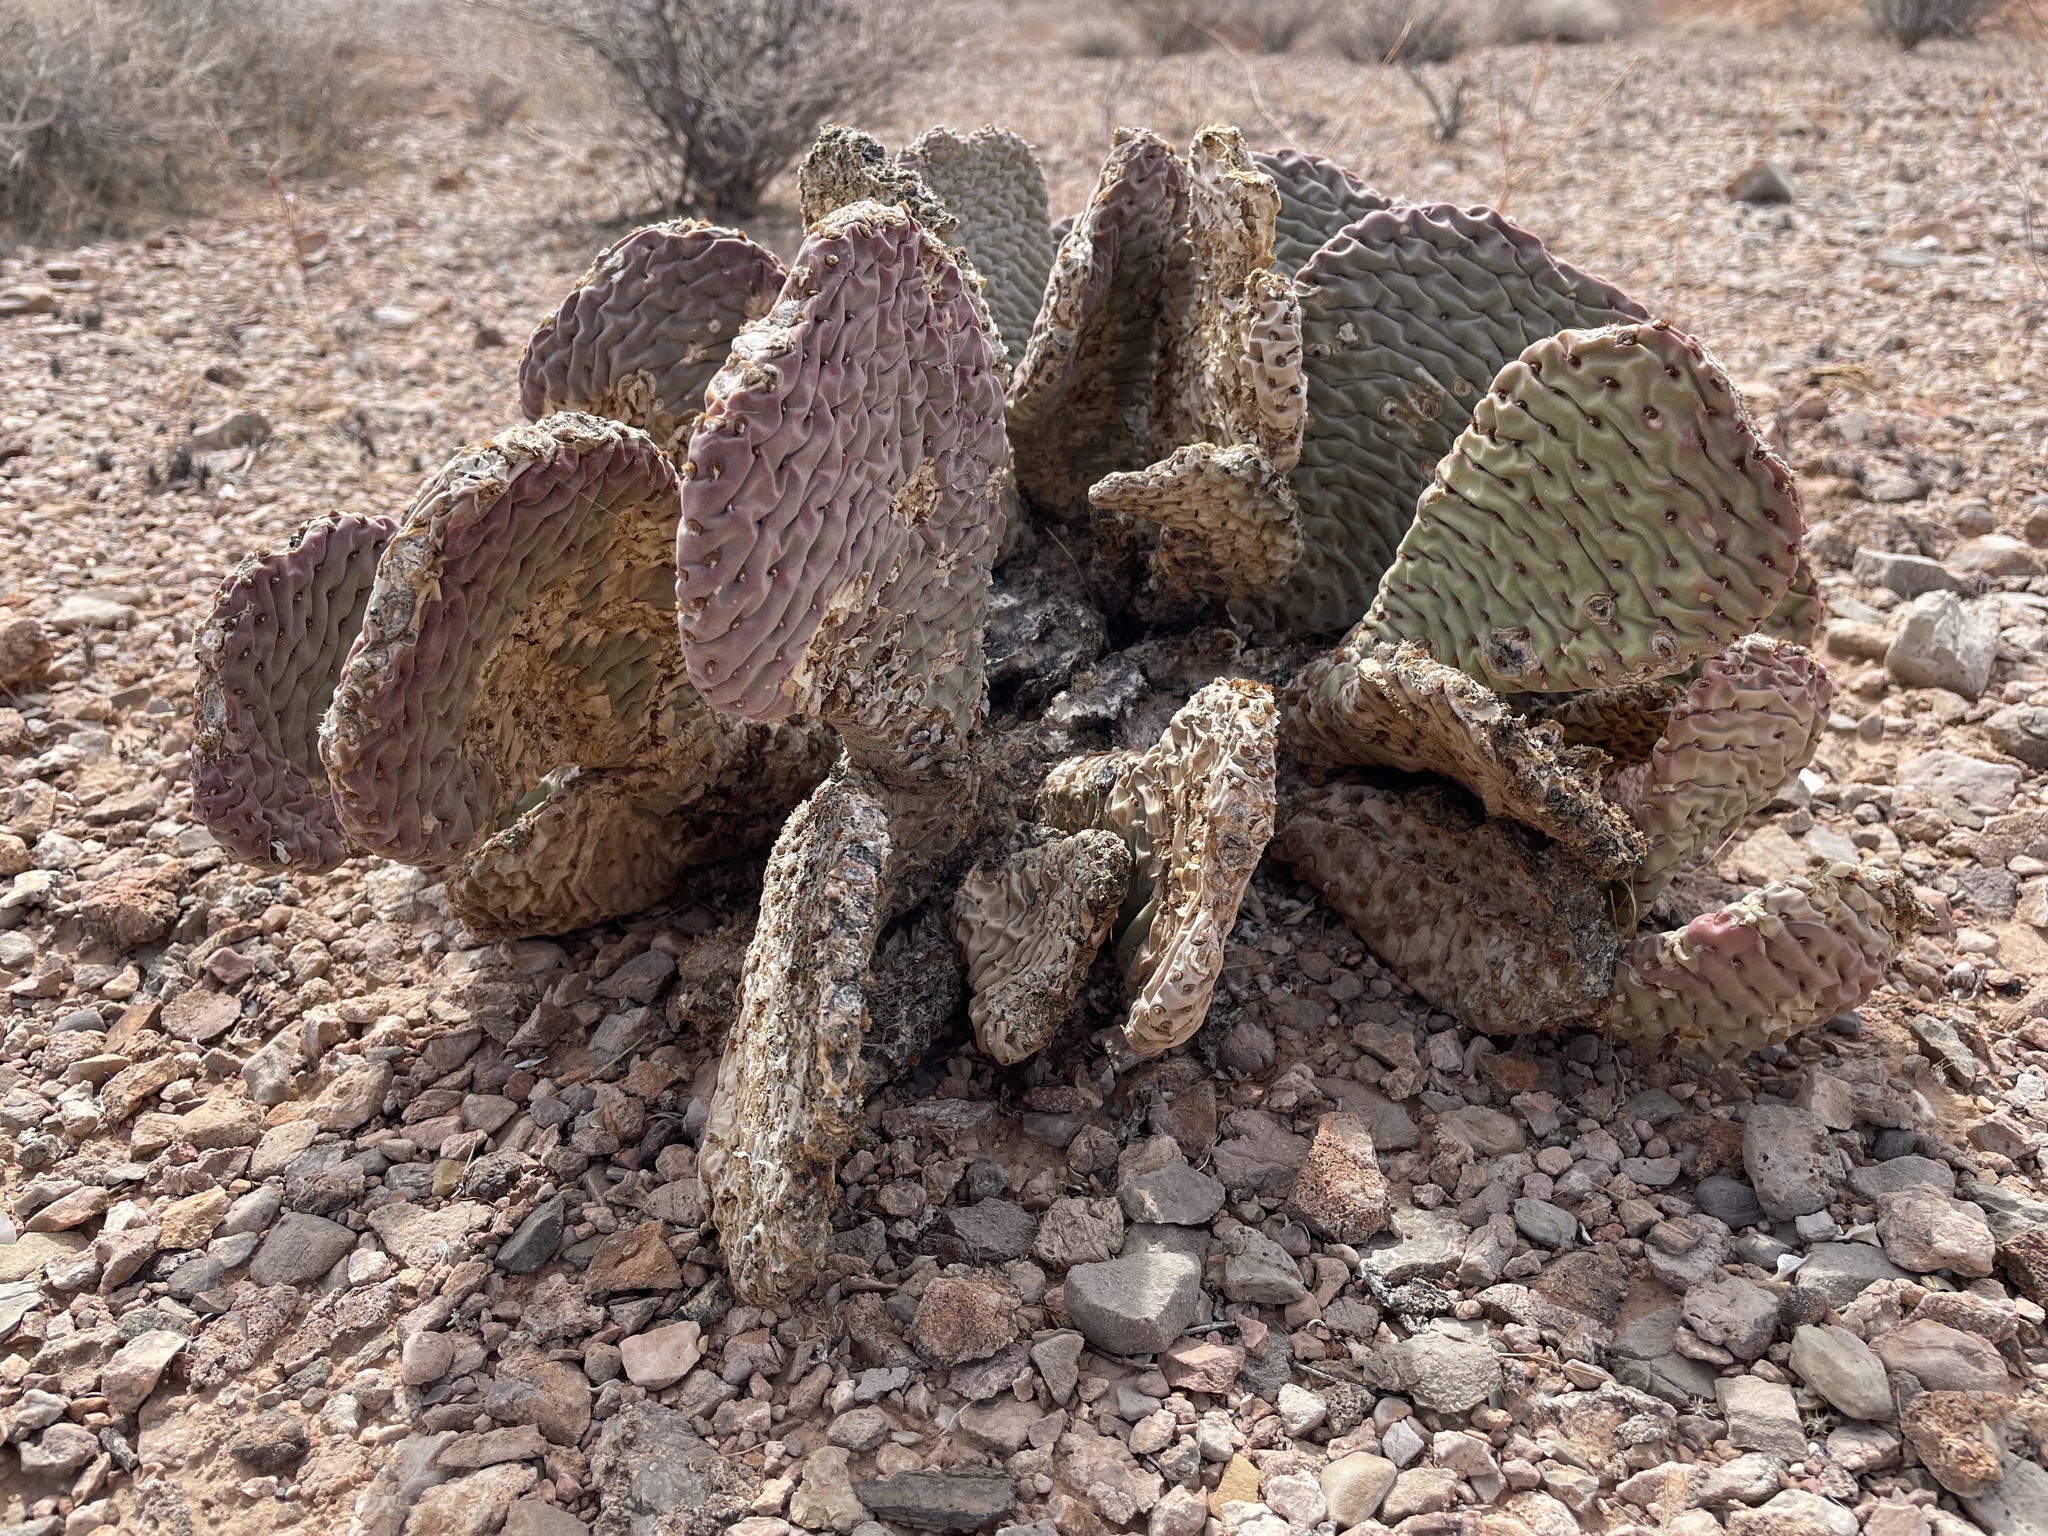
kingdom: Plantae
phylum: Tracheophyta
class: Magnoliopsida
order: Caryophyllales
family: Cactaceae
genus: Opuntia
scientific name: Opuntia basilaris
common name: Beavertail prickly-pear
